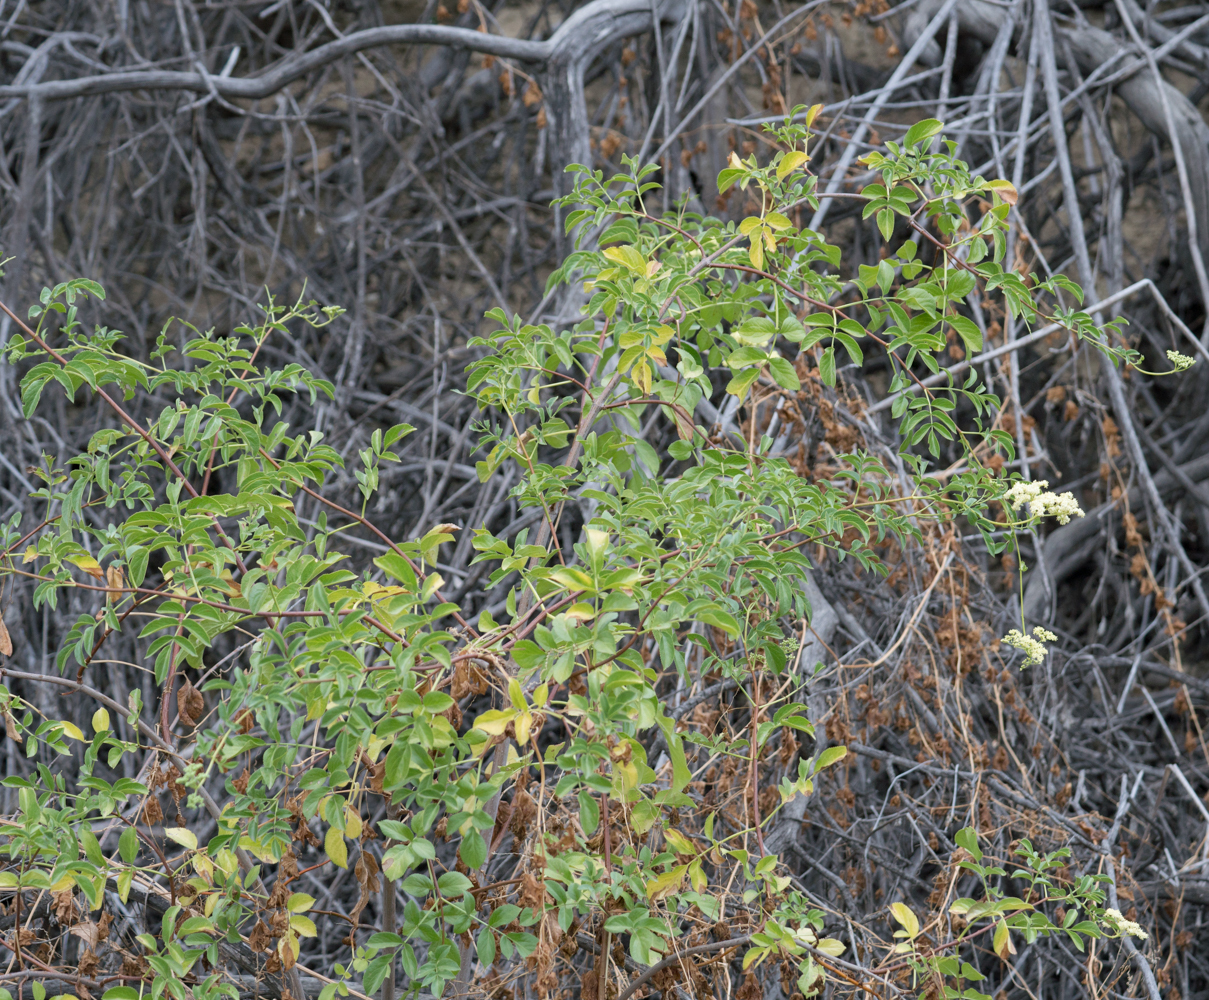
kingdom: Plantae
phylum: Tracheophyta
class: Magnoliopsida
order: Dipsacales
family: Viburnaceae
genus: Sambucus
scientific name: Sambucus cerulea
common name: Blue elder
